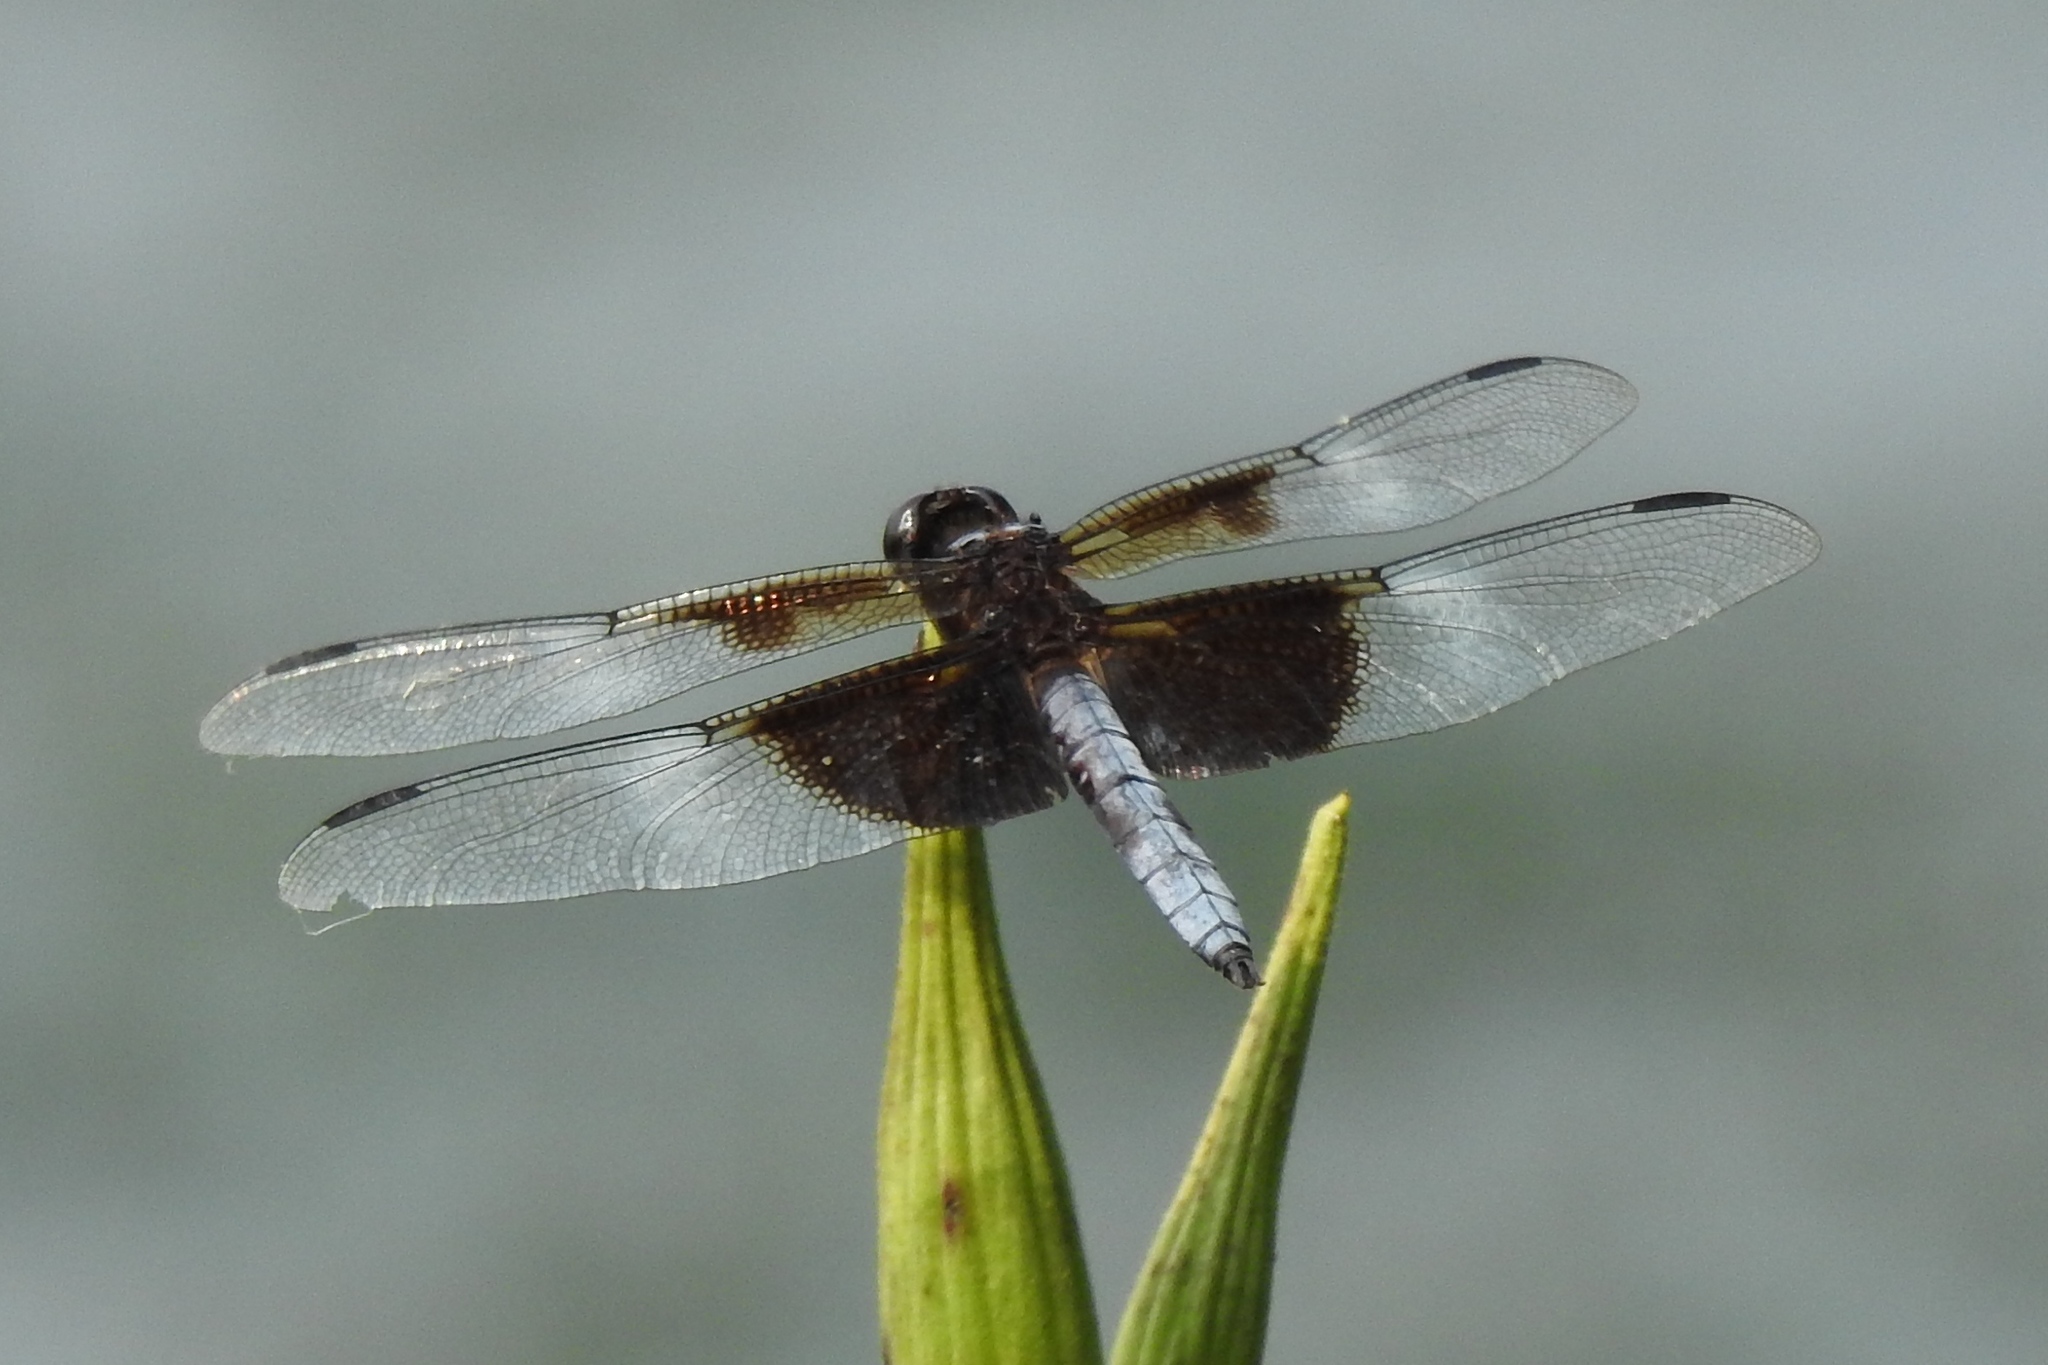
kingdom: Animalia
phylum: Arthropoda
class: Insecta
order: Odonata
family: Libellulidae
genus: Libellula
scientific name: Libellula luctuosa
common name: Widow skimmer
